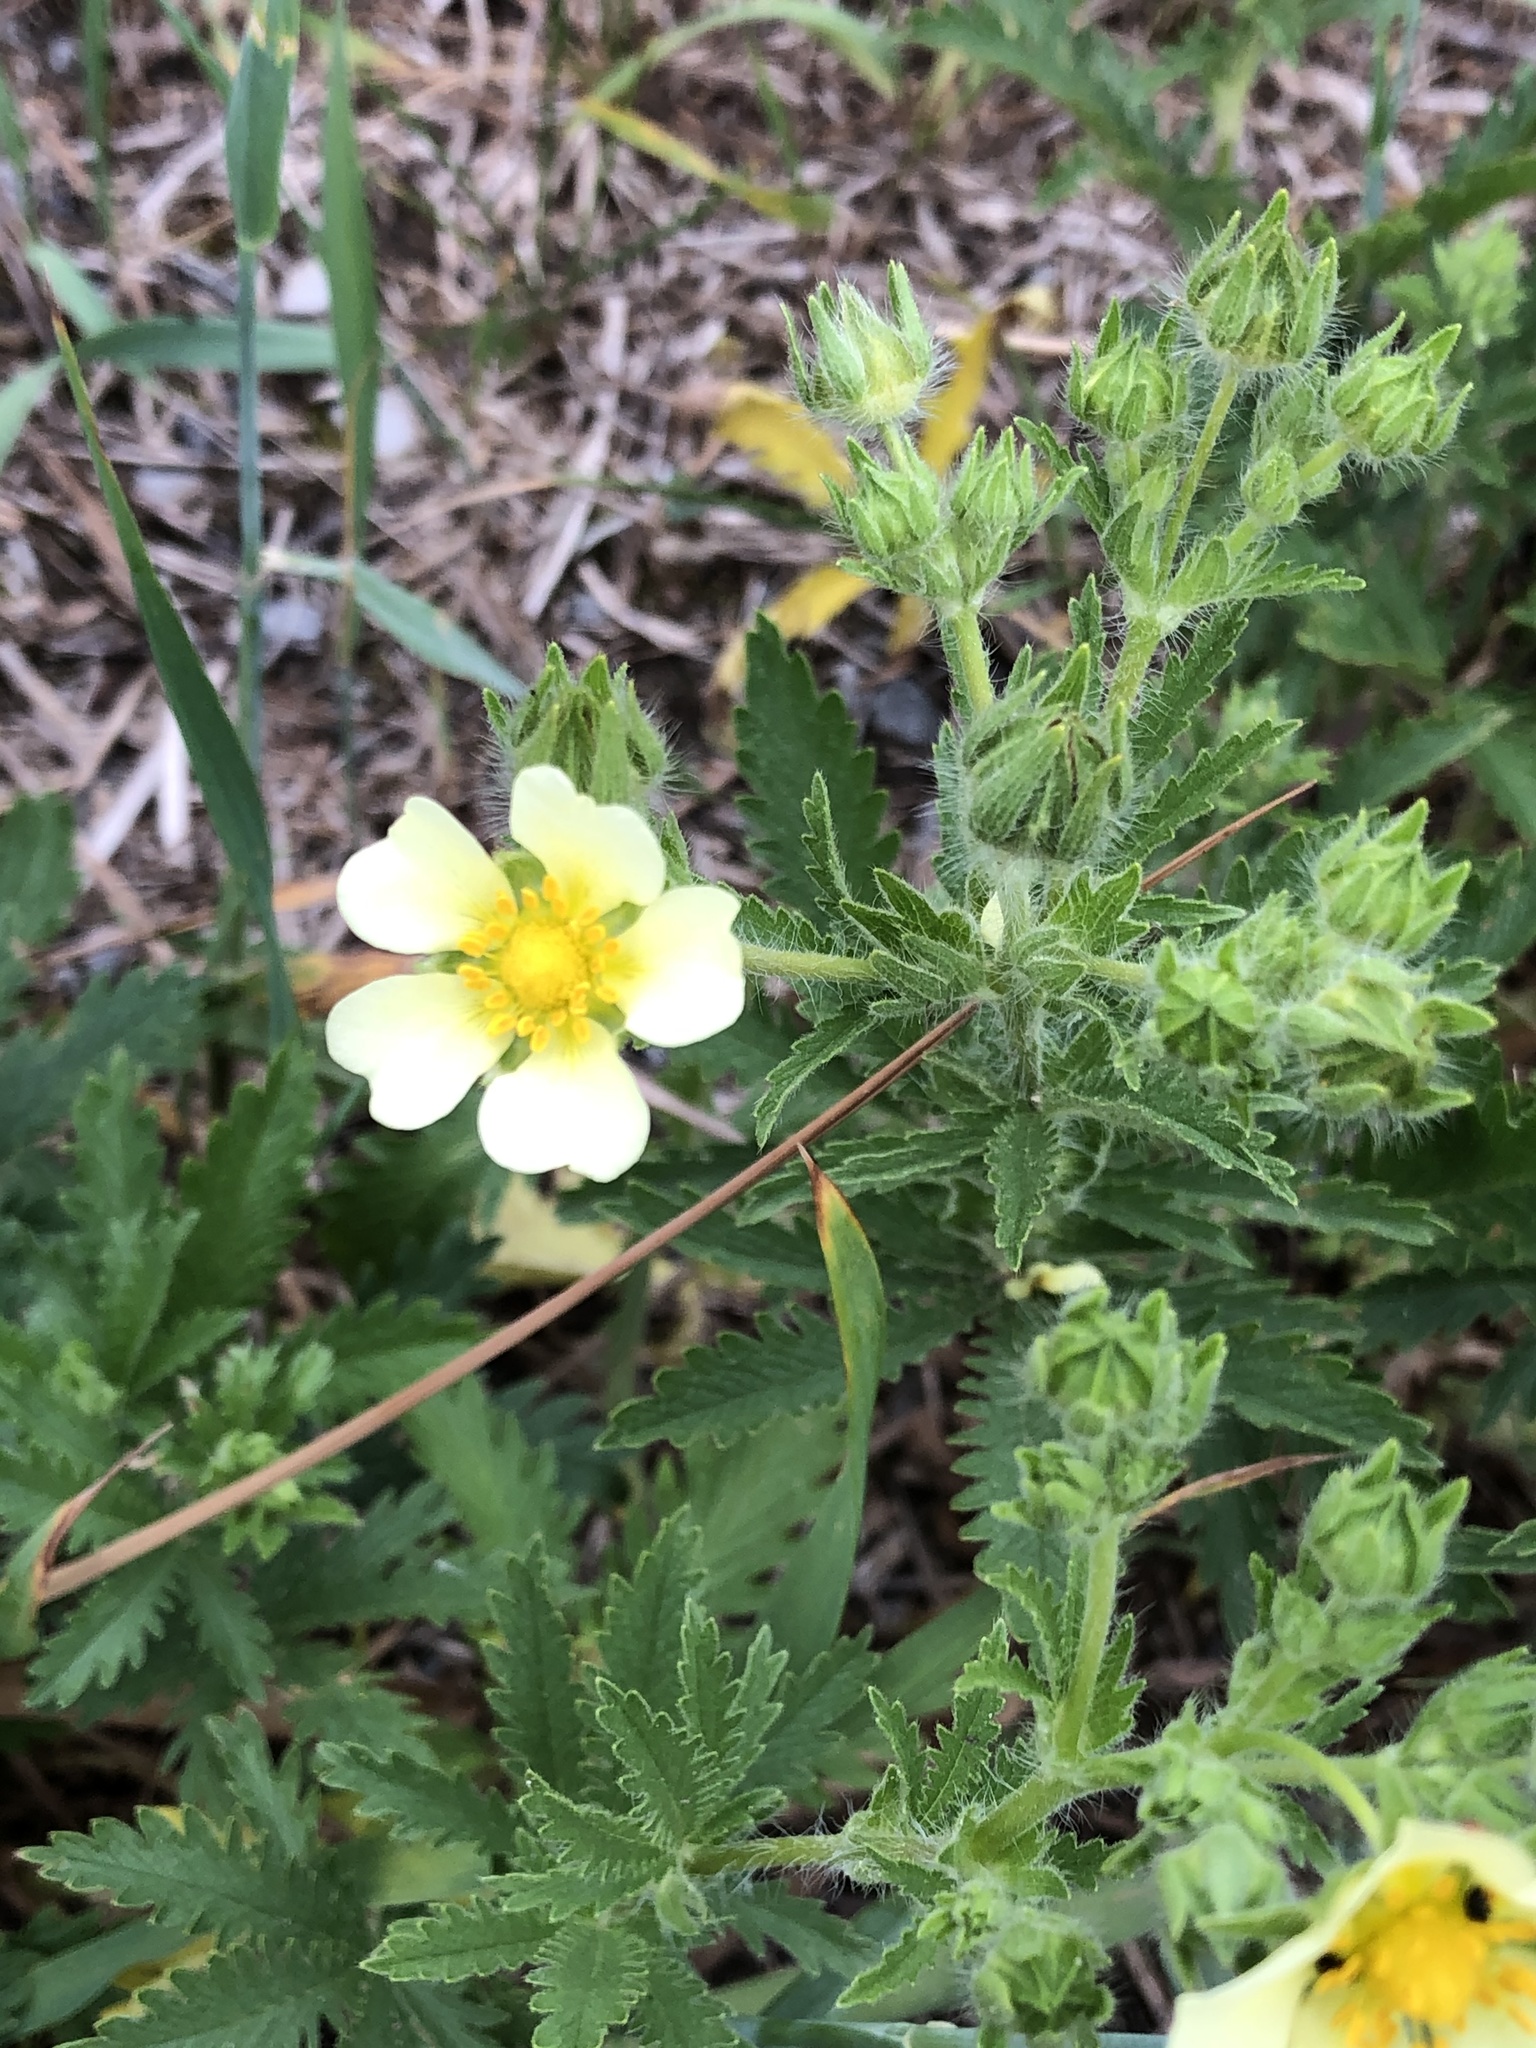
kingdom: Plantae
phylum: Tracheophyta
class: Magnoliopsida
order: Rosales
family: Rosaceae
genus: Potentilla
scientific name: Potentilla recta
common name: Sulphur cinquefoil
